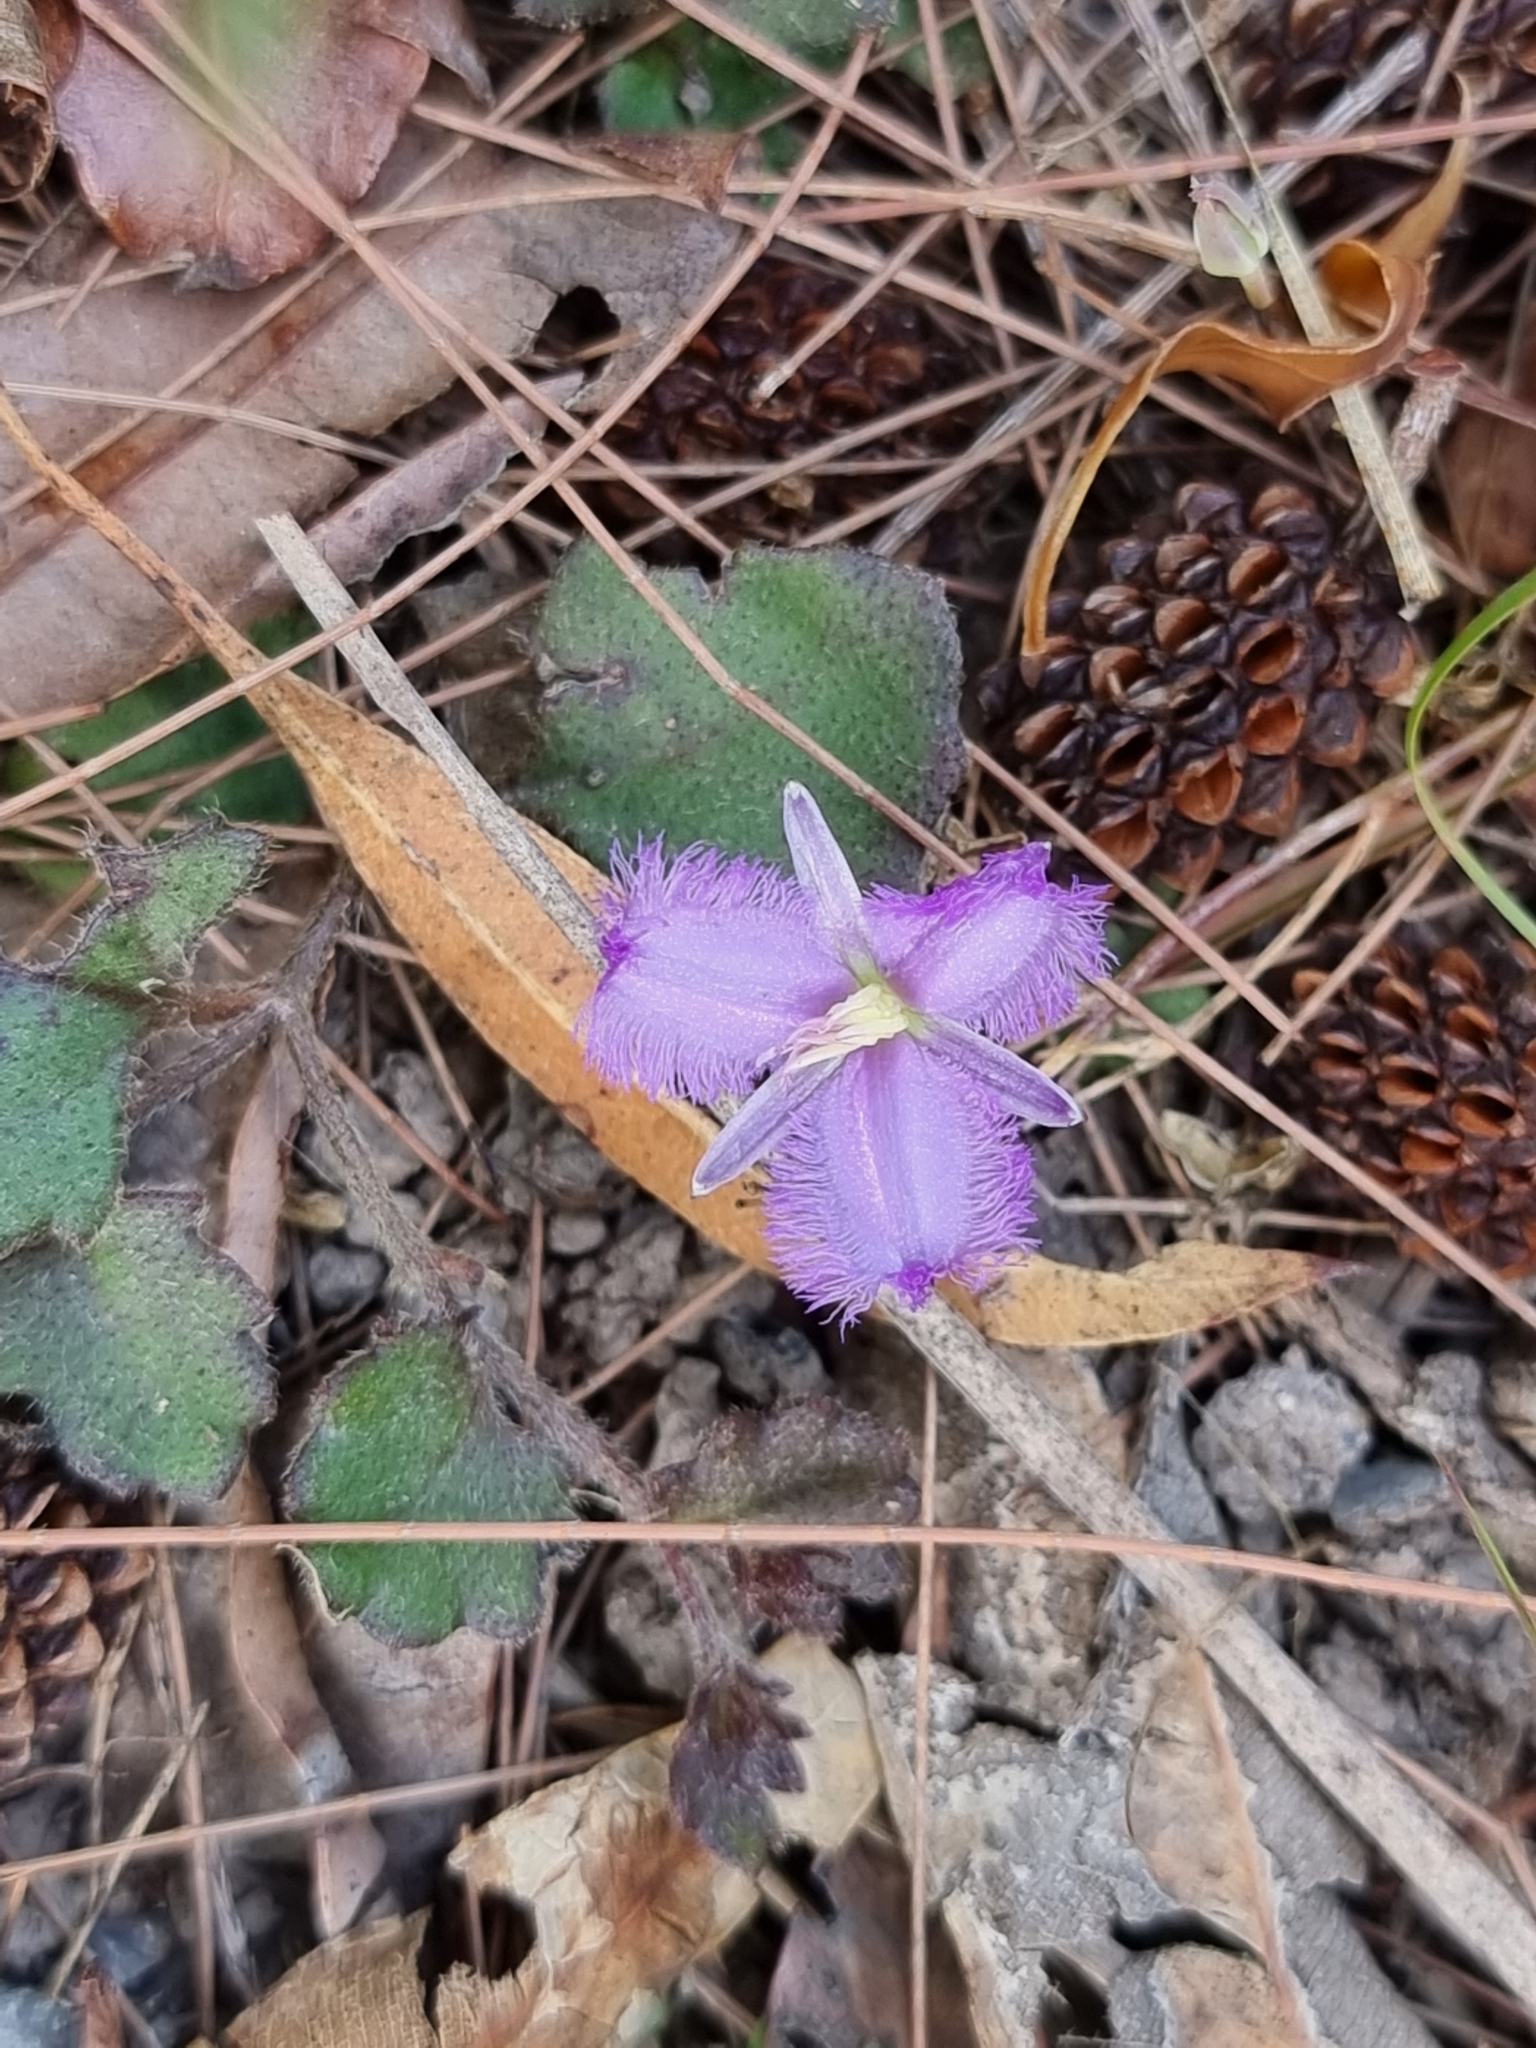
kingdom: Plantae
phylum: Tracheophyta
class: Liliopsida
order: Asparagales
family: Asparagaceae
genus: Thysanotus
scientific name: Thysanotus tuberosus
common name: Common fringed-lily
